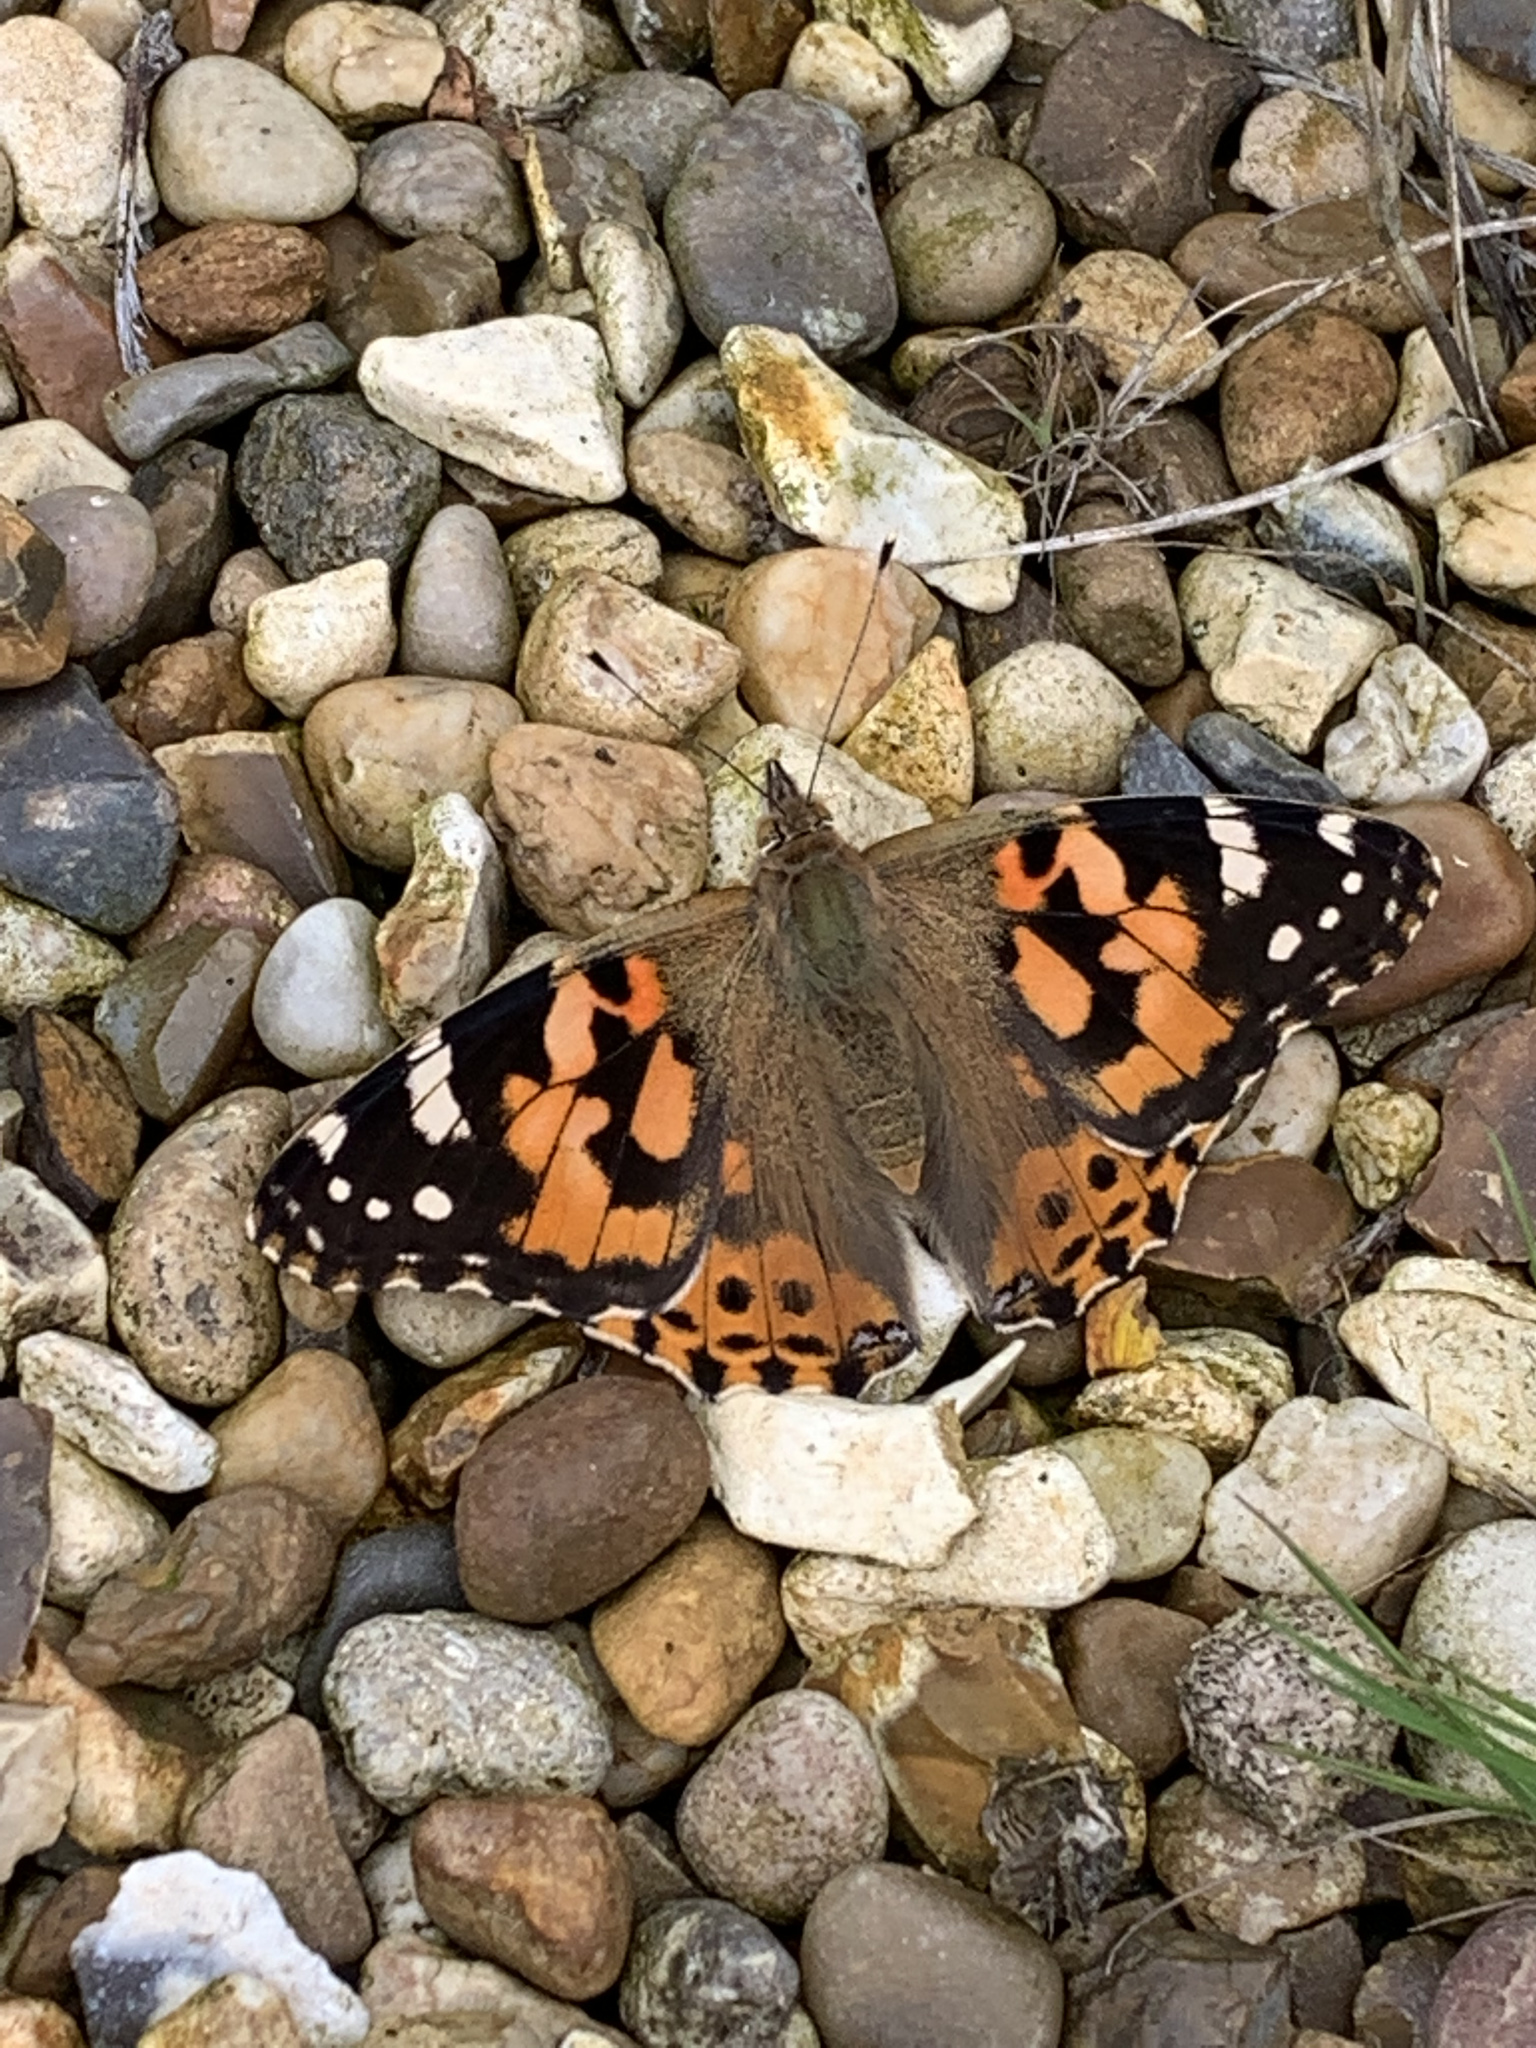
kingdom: Animalia
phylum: Arthropoda
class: Insecta
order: Lepidoptera
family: Nymphalidae
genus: Vanessa
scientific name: Vanessa cardui
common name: Painted lady
